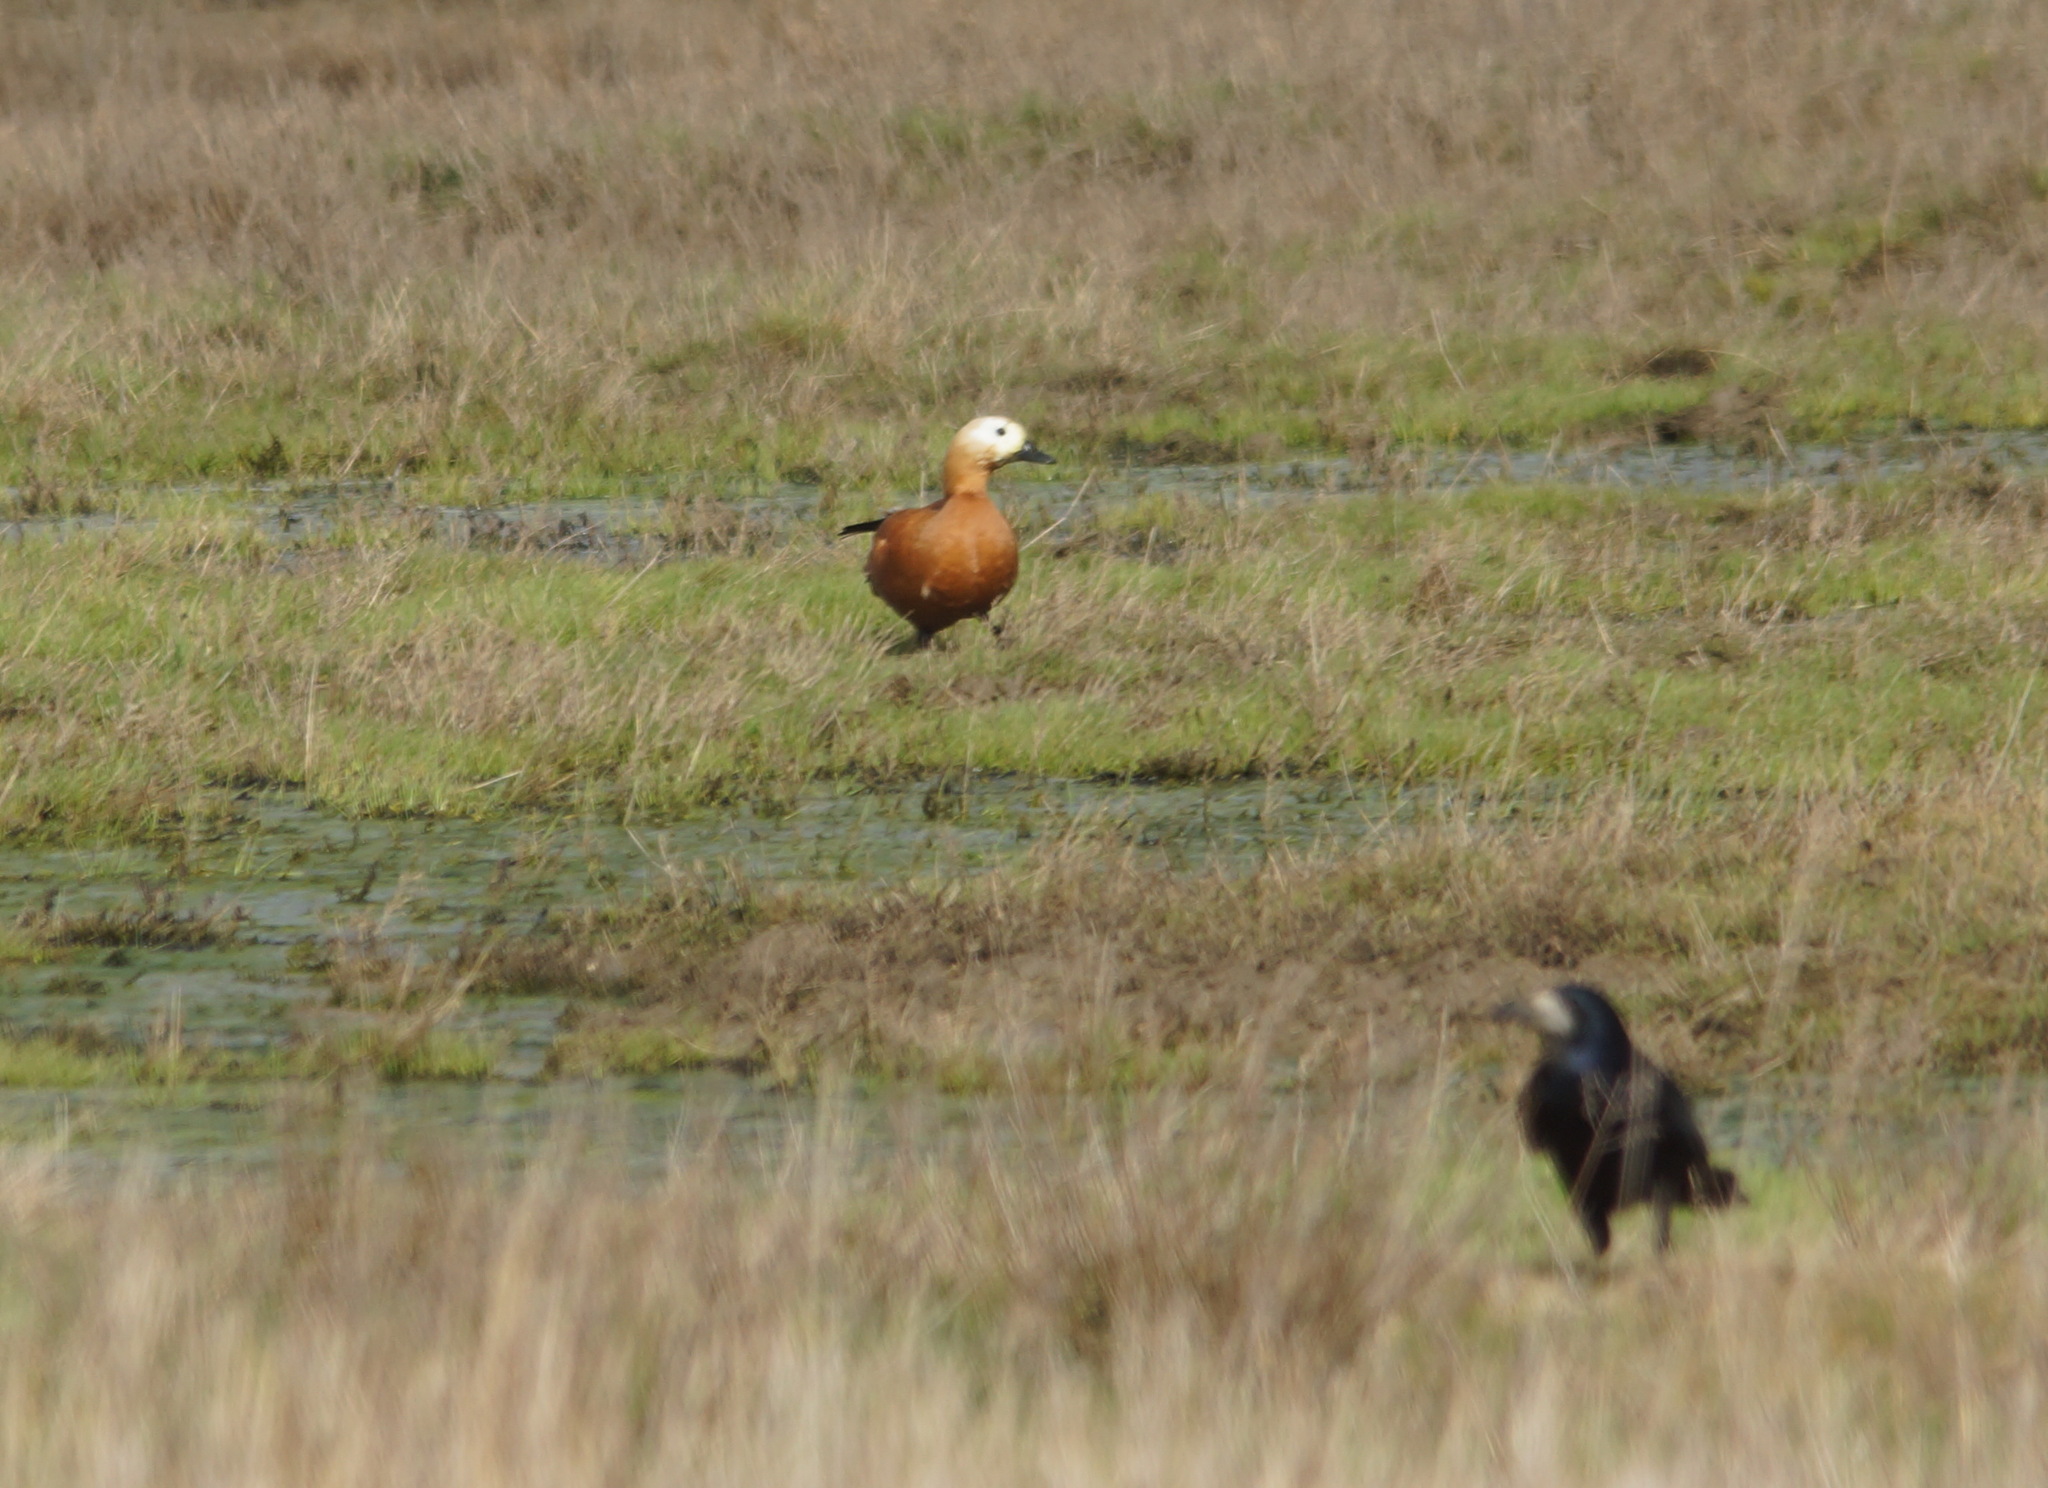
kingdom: Animalia
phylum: Chordata
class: Aves
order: Anseriformes
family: Anatidae
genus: Tadorna
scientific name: Tadorna ferruginea
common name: Ruddy shelduck
